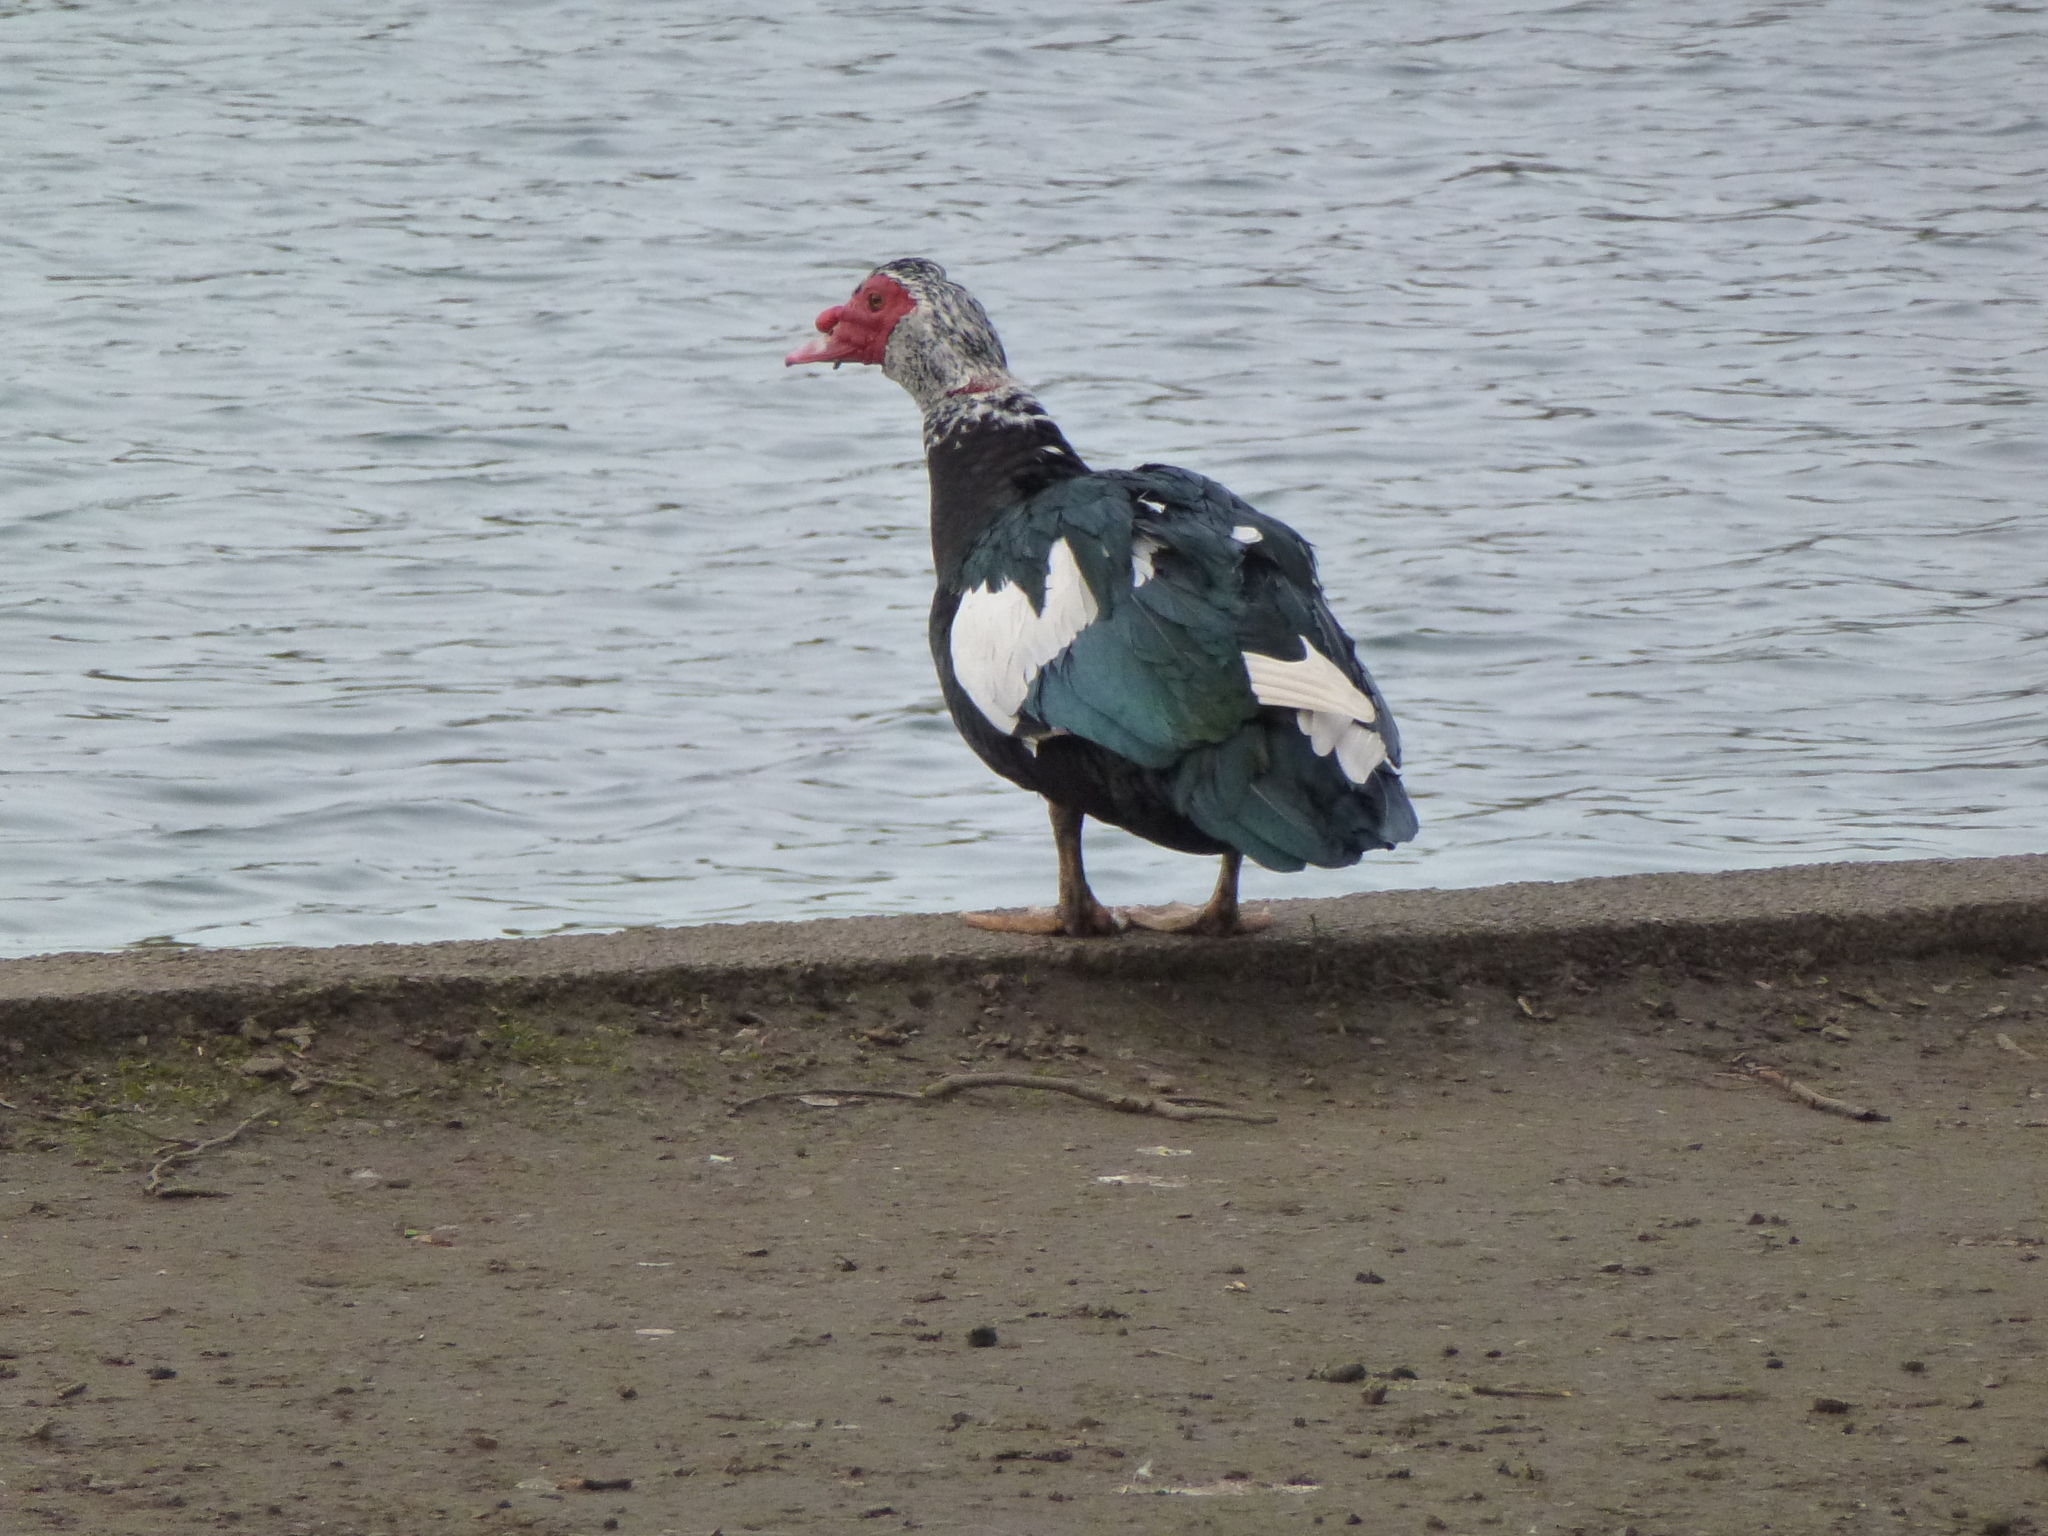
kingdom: Animalia
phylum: Chordata
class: Aves
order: Anseriformes
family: Anatidae
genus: Cairina
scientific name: Cairina moschata
